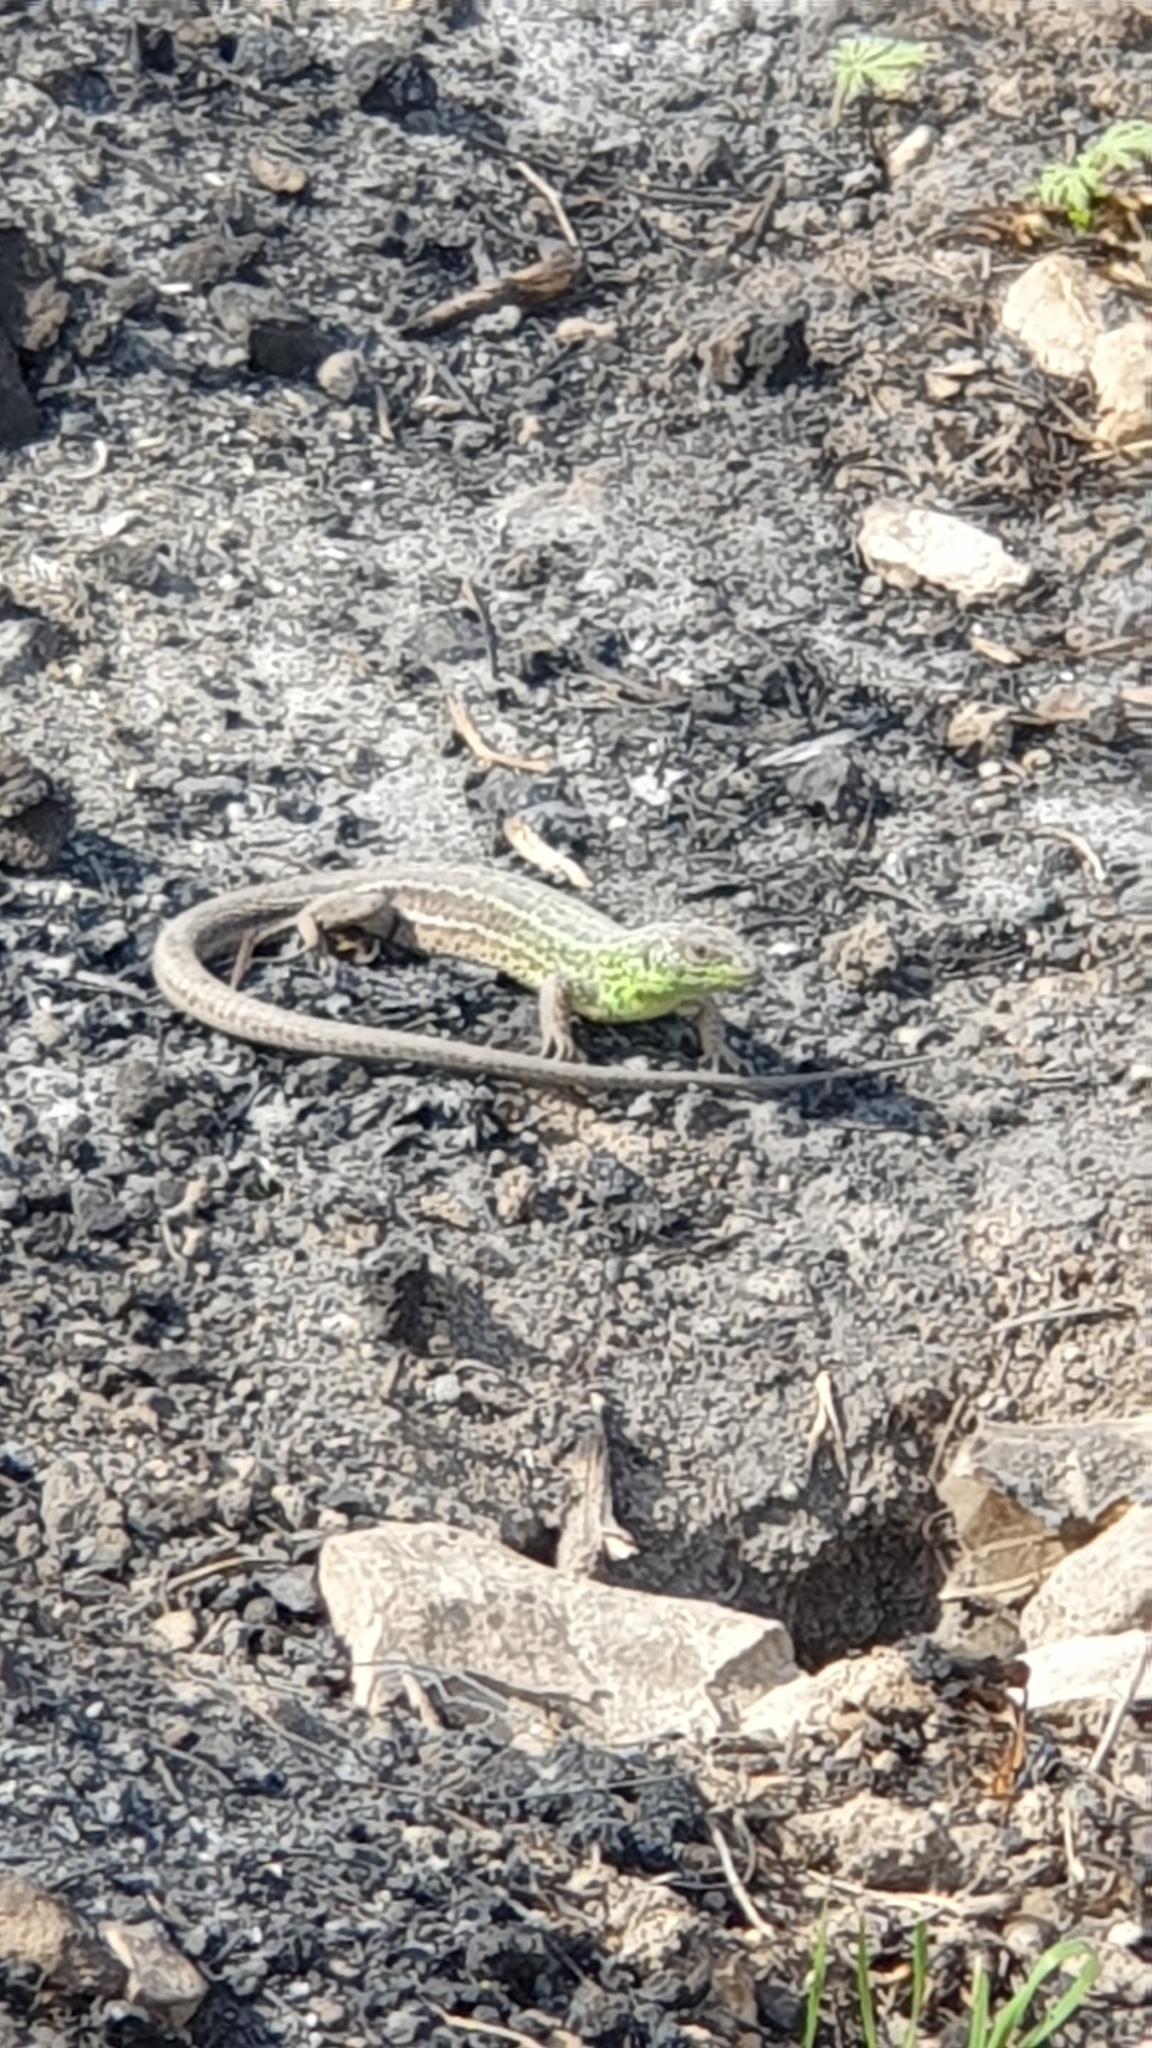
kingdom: Animalia
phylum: Chordata
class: Squamata
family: Lacertidae
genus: Lacerta
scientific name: Lacerta media
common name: Medium lizard
